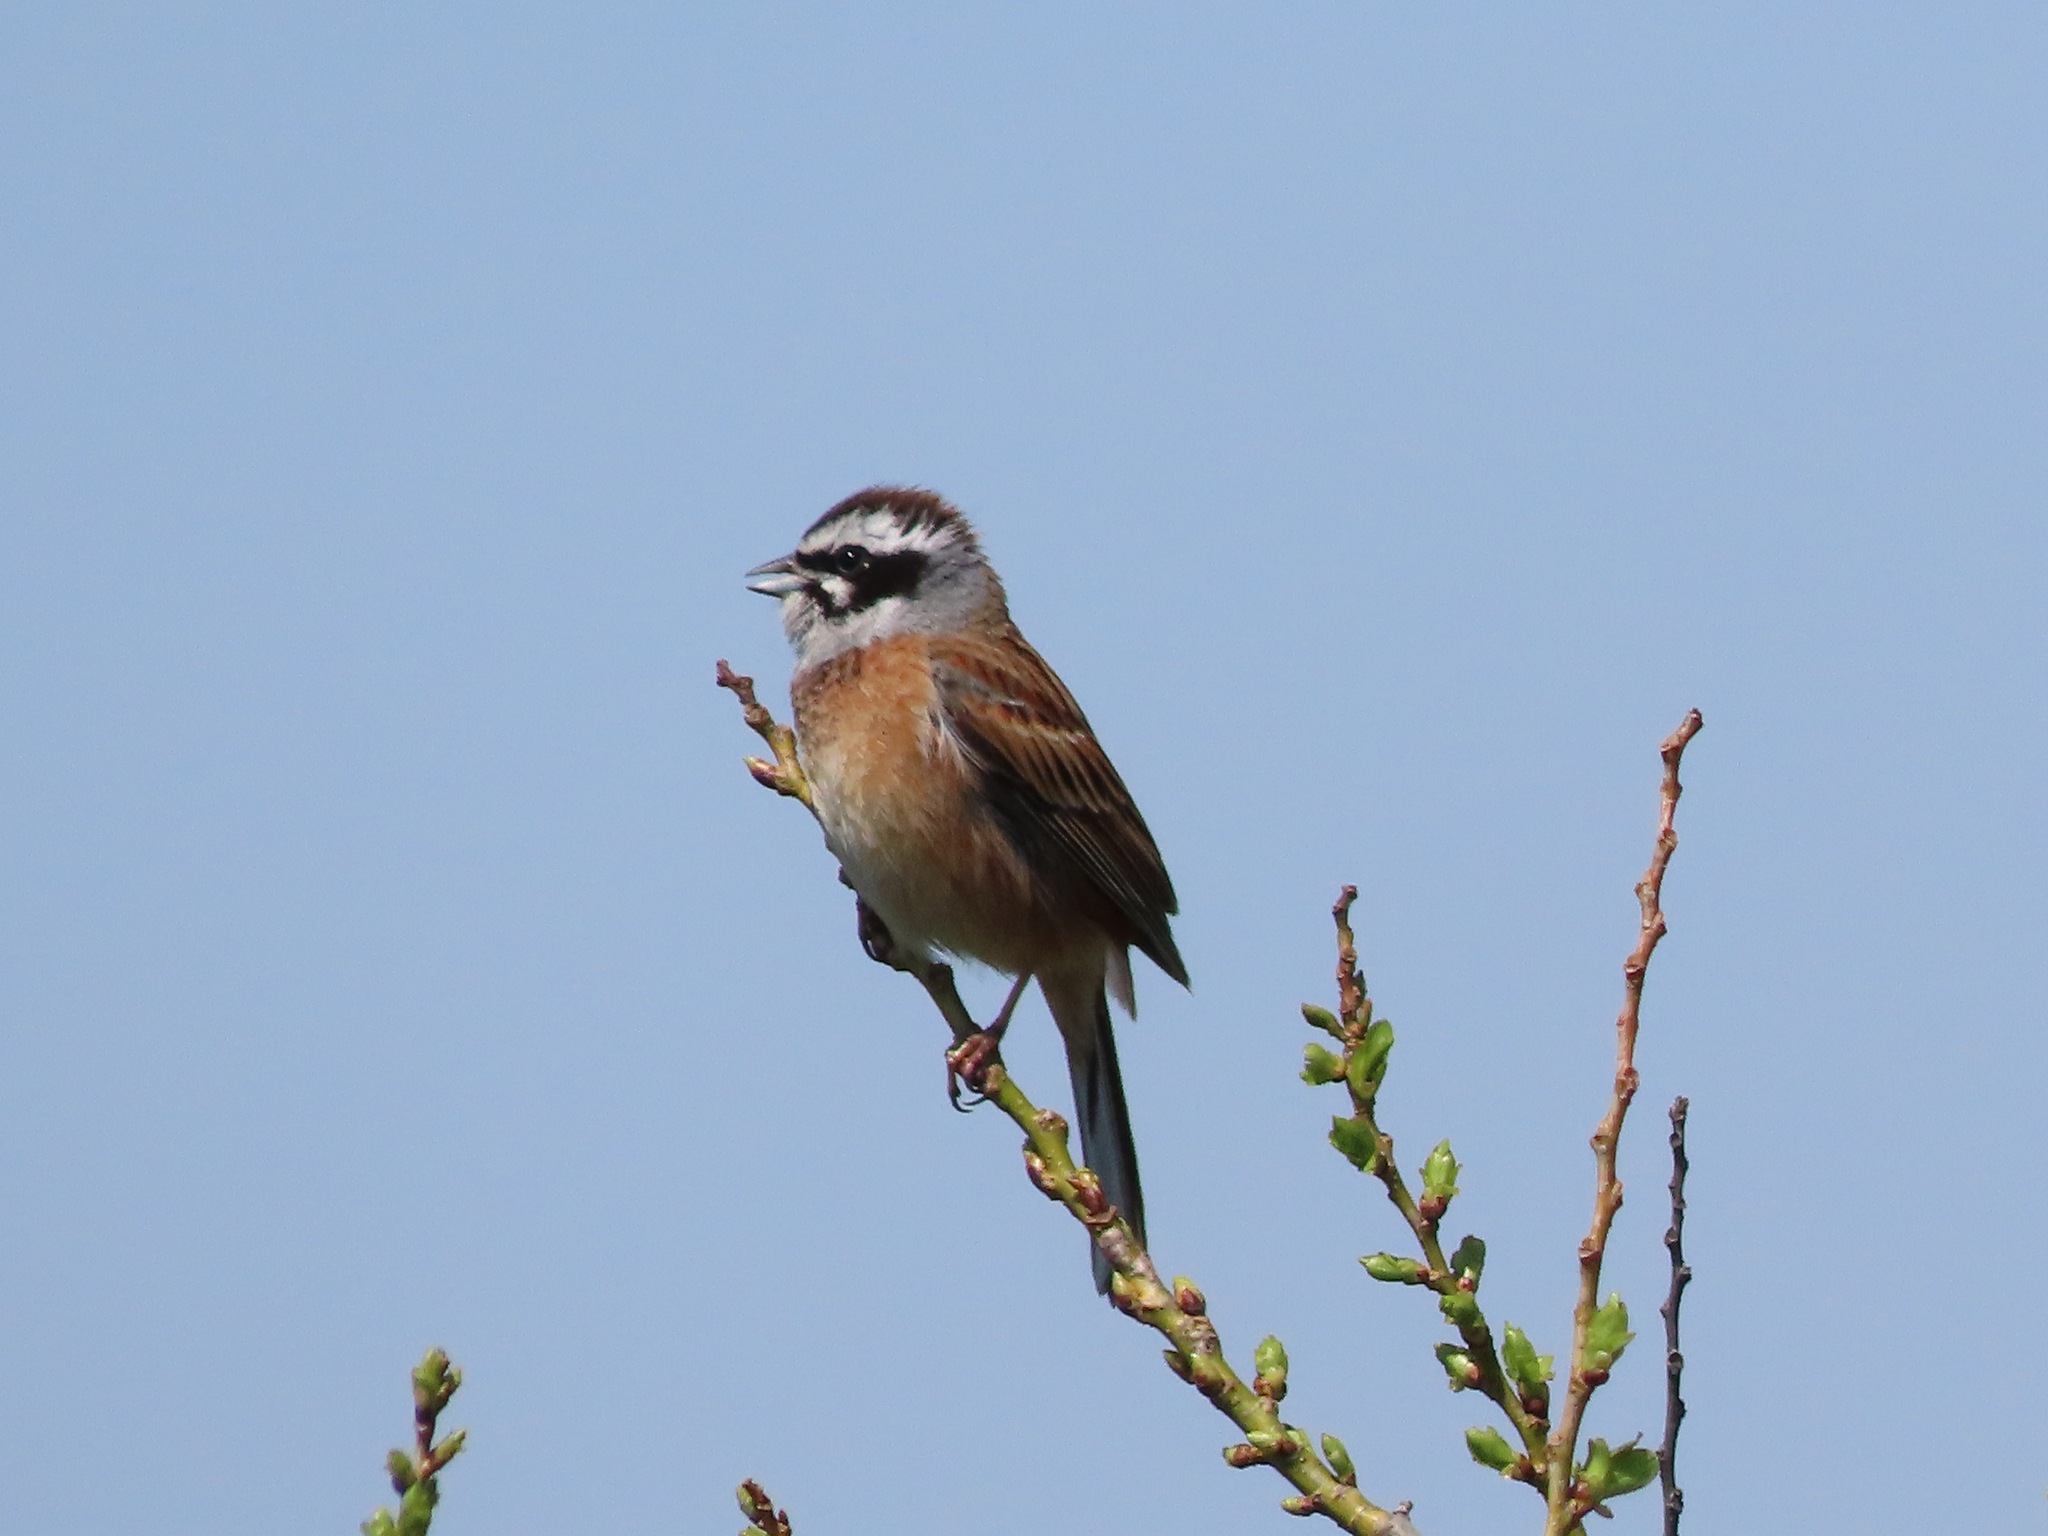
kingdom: Animalia
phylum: Chordata
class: Aves
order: Passeriformes
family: Emberizidae
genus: Emberiza
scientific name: Emberiza cioides
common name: Meadow bunting
